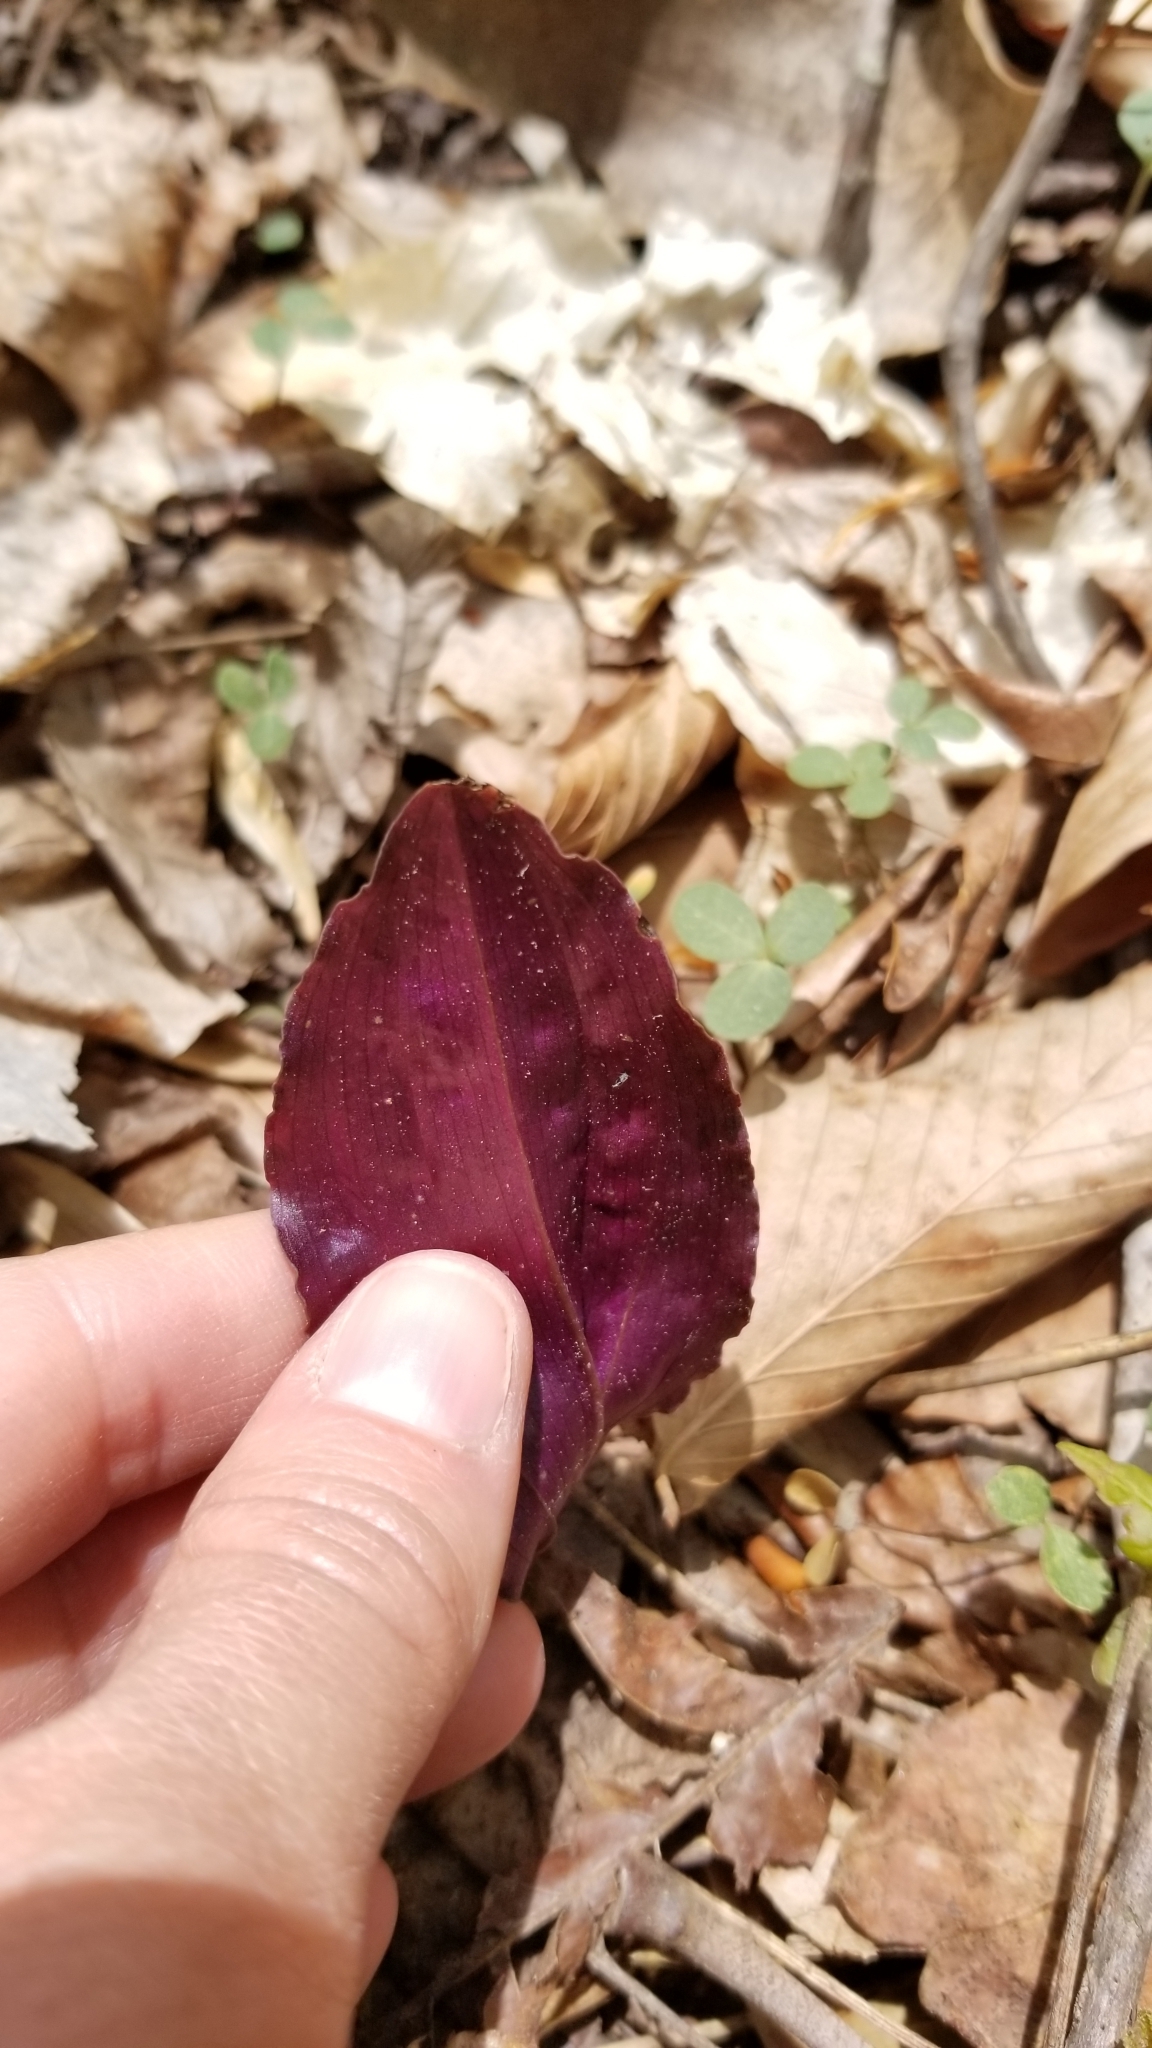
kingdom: Plantae
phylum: Tracheophyta
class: Liliopsida
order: Asparagales
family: Orchidaceae
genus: Tipularia
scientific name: Tipularia discolor
